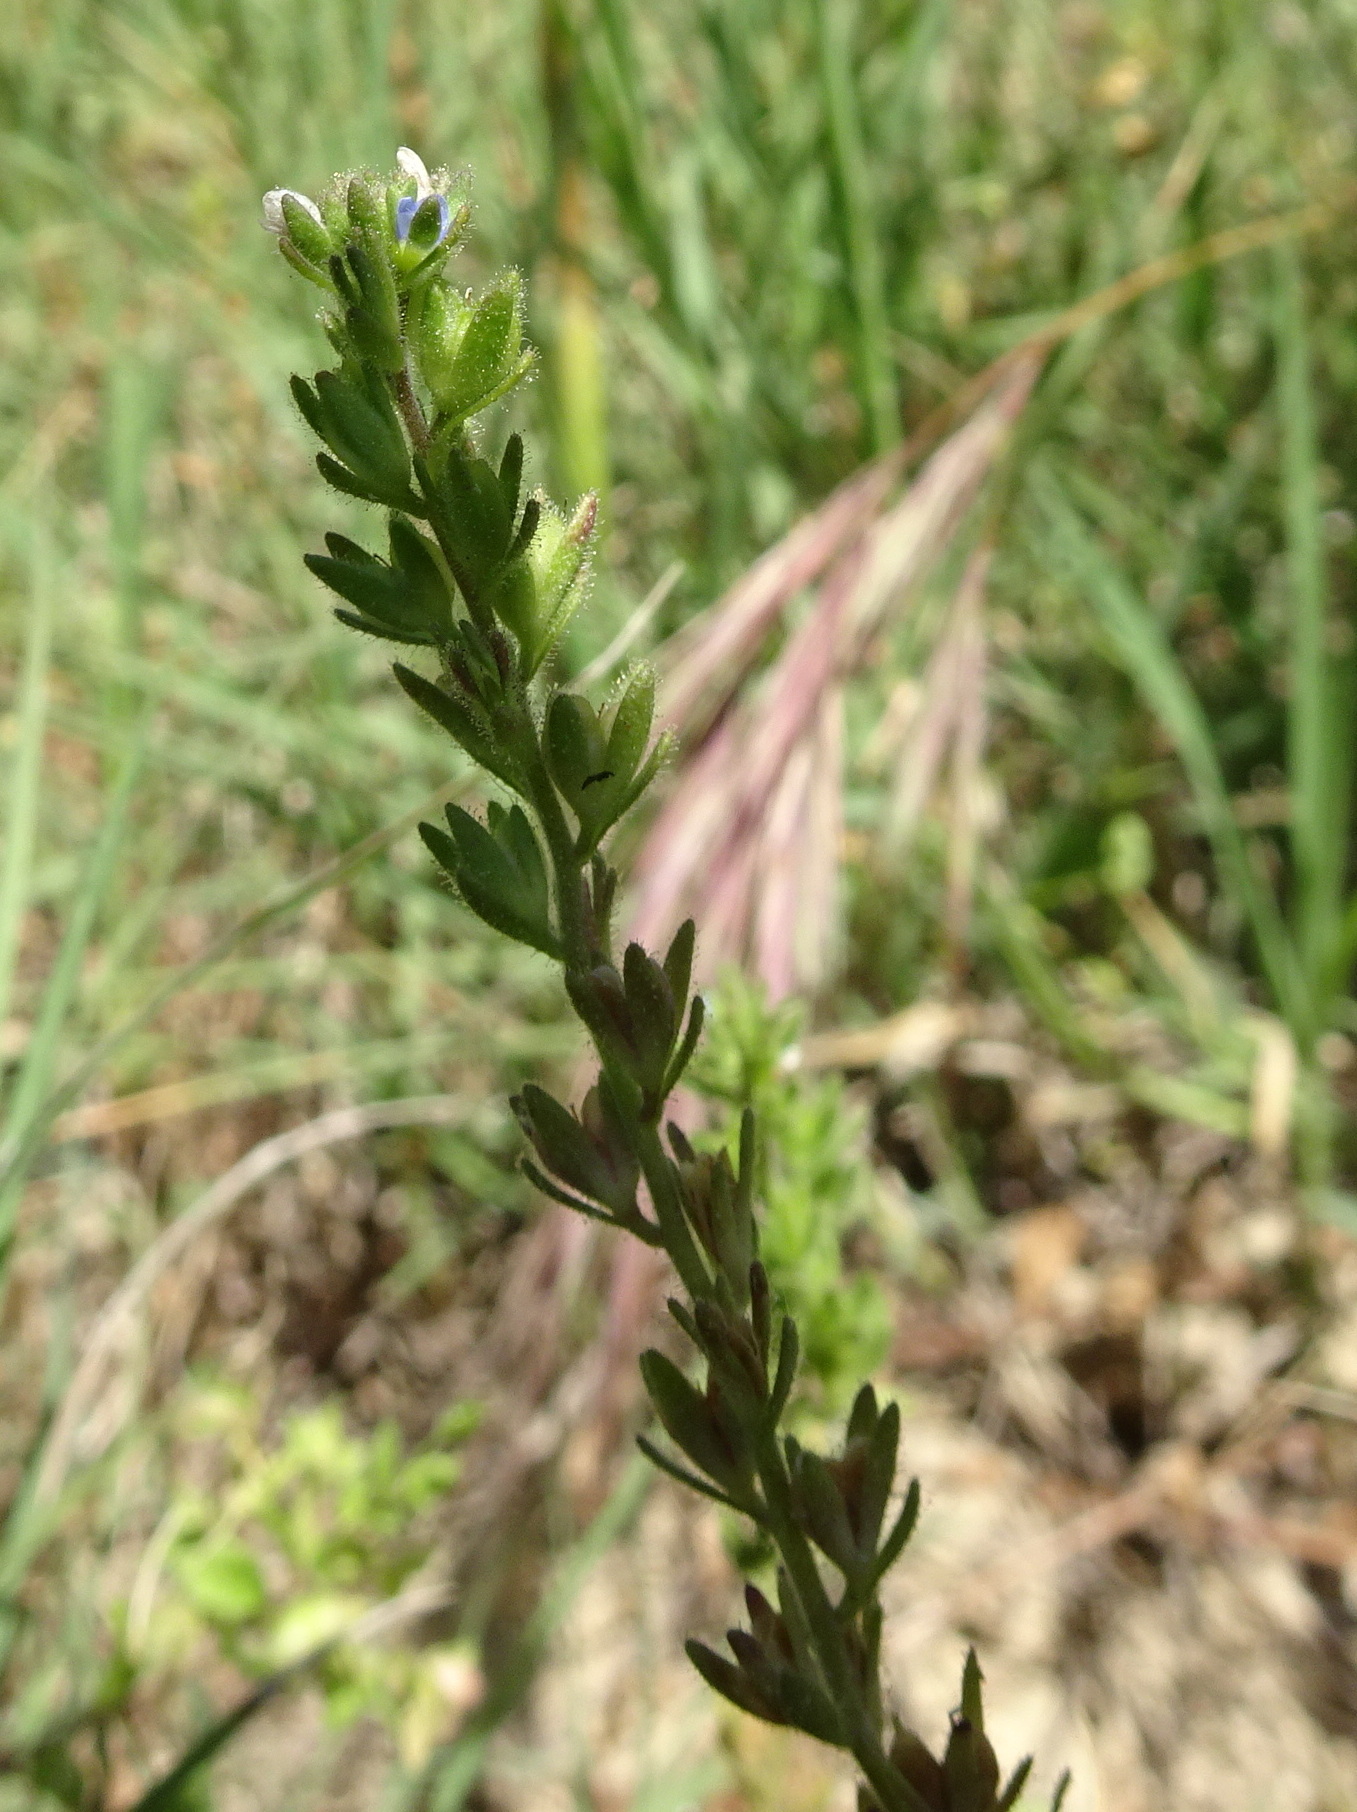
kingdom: Plantae
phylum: Tracheophyta
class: Magnoliopsida
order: Lamiales
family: Plantaginaceae
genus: Veronica
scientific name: Veronica arvensis
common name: Corn speedwell
